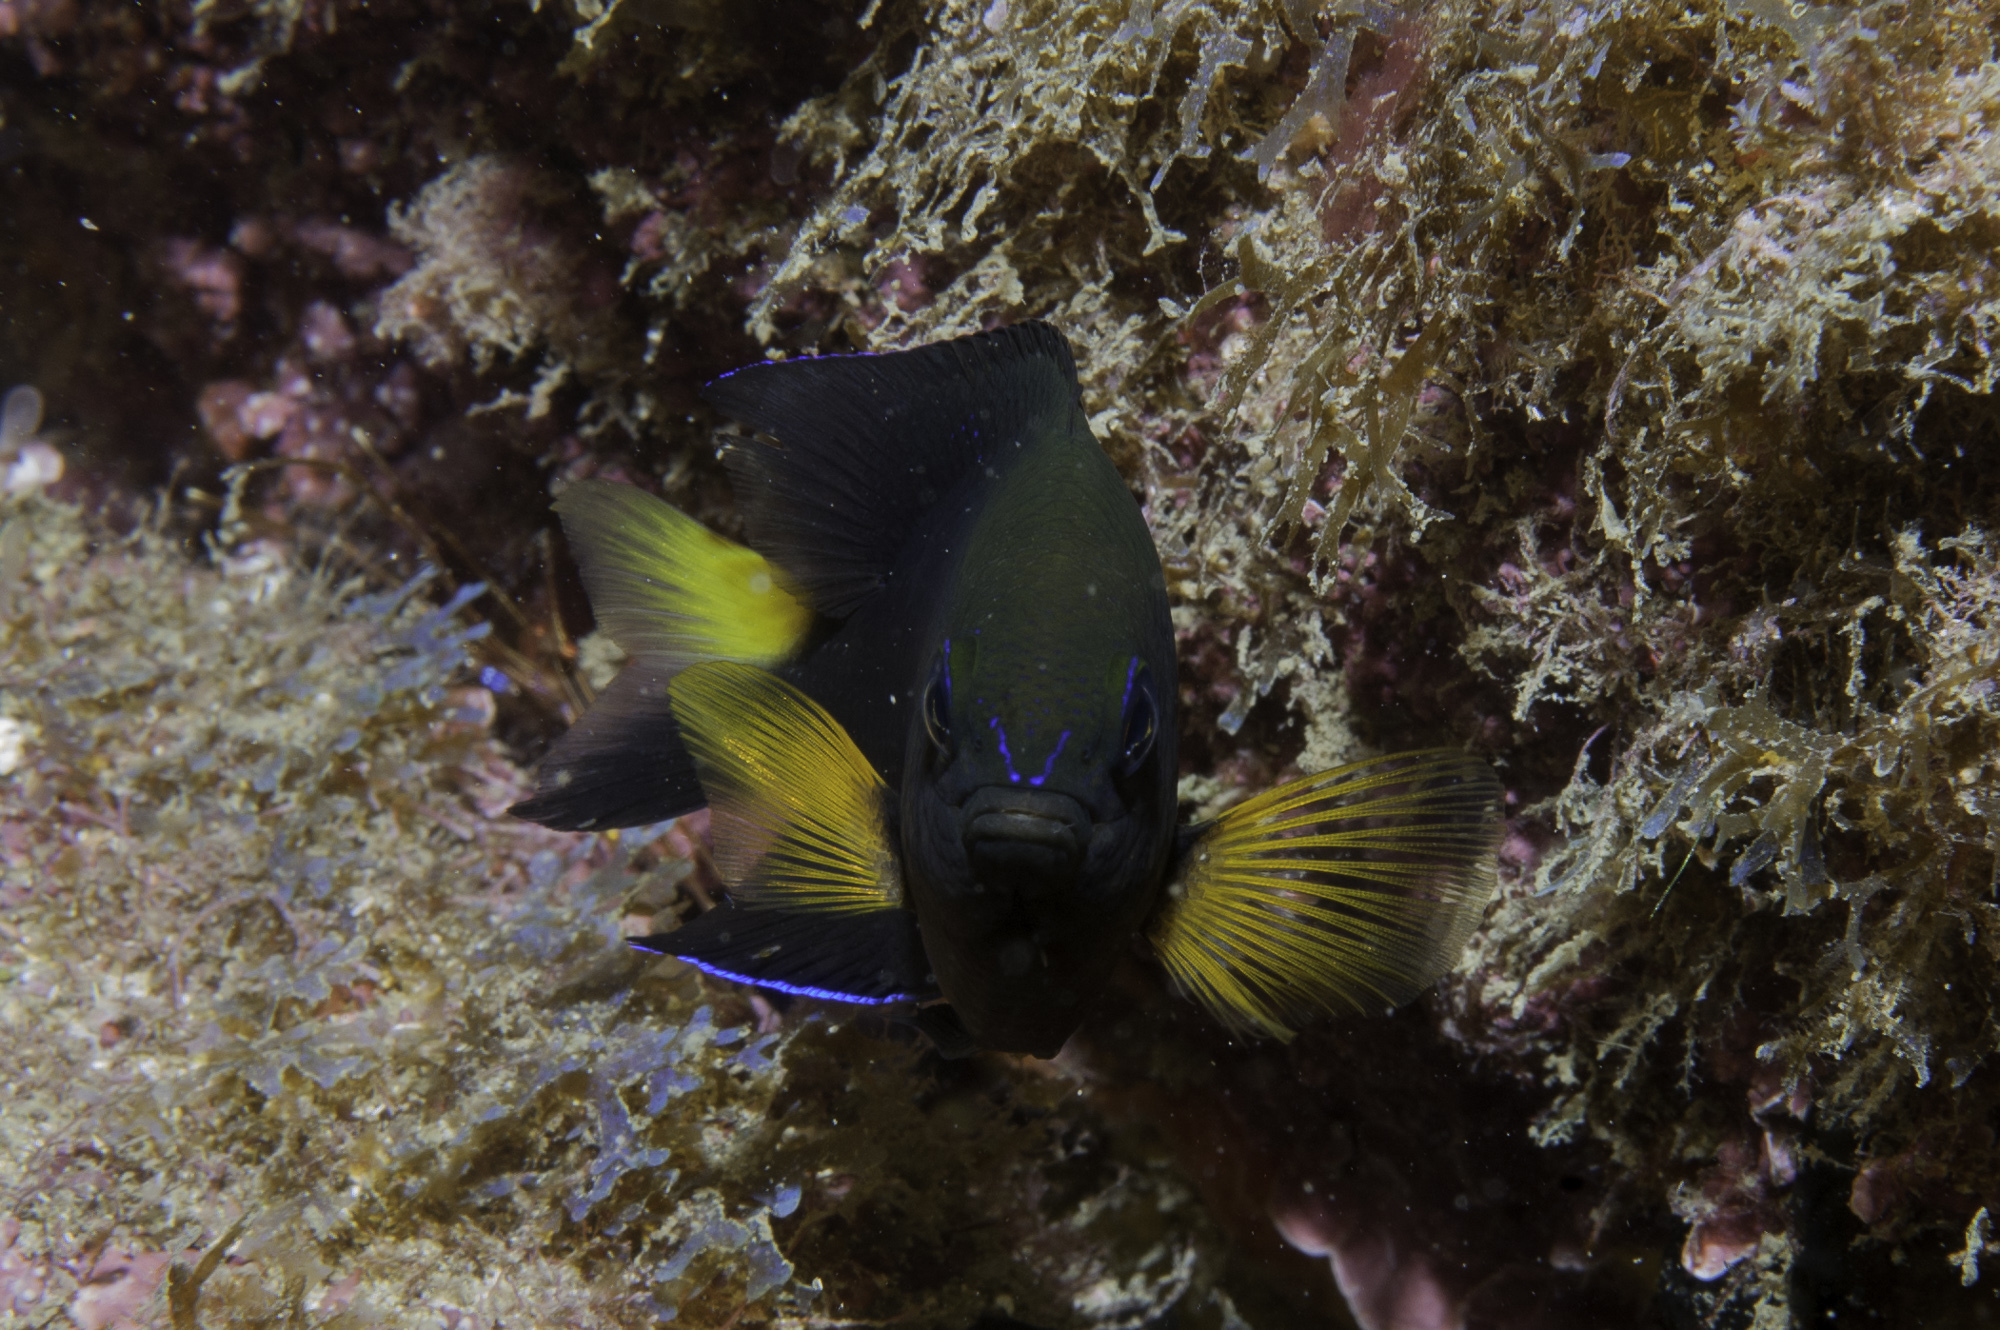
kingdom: Animalia
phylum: Chordata
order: Perciformes
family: Pomacentridae
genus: Stegastes
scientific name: Stegastes pictus
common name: Yellowtip damselfish
